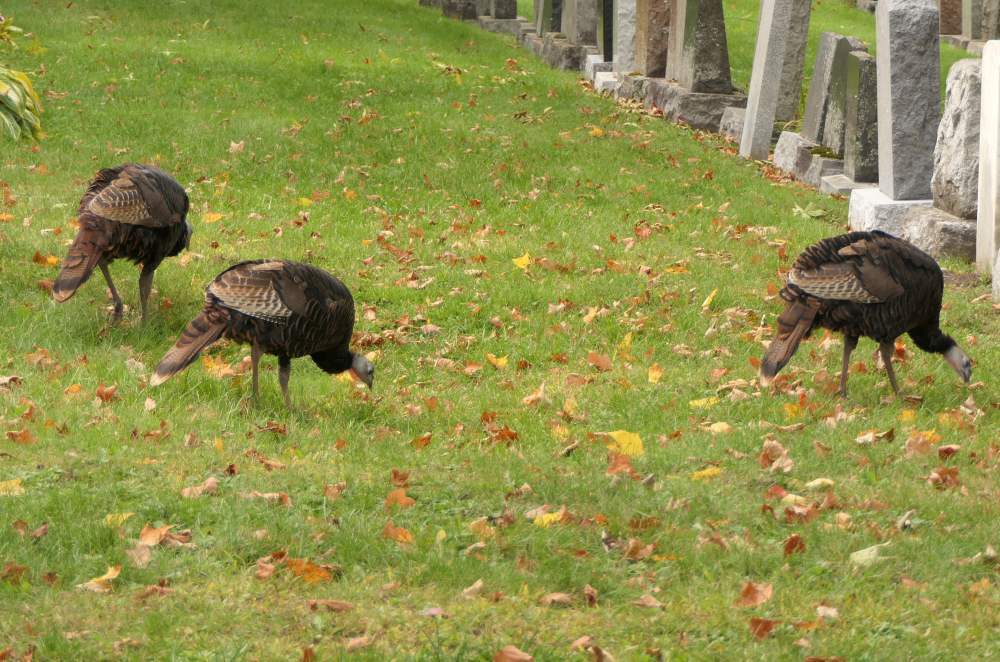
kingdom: Animalia
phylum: Chordata
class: Aves
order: Galliformes
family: Phasianidae
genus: Meleagris
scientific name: Meleagris gallopavo
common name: Wild turkey
